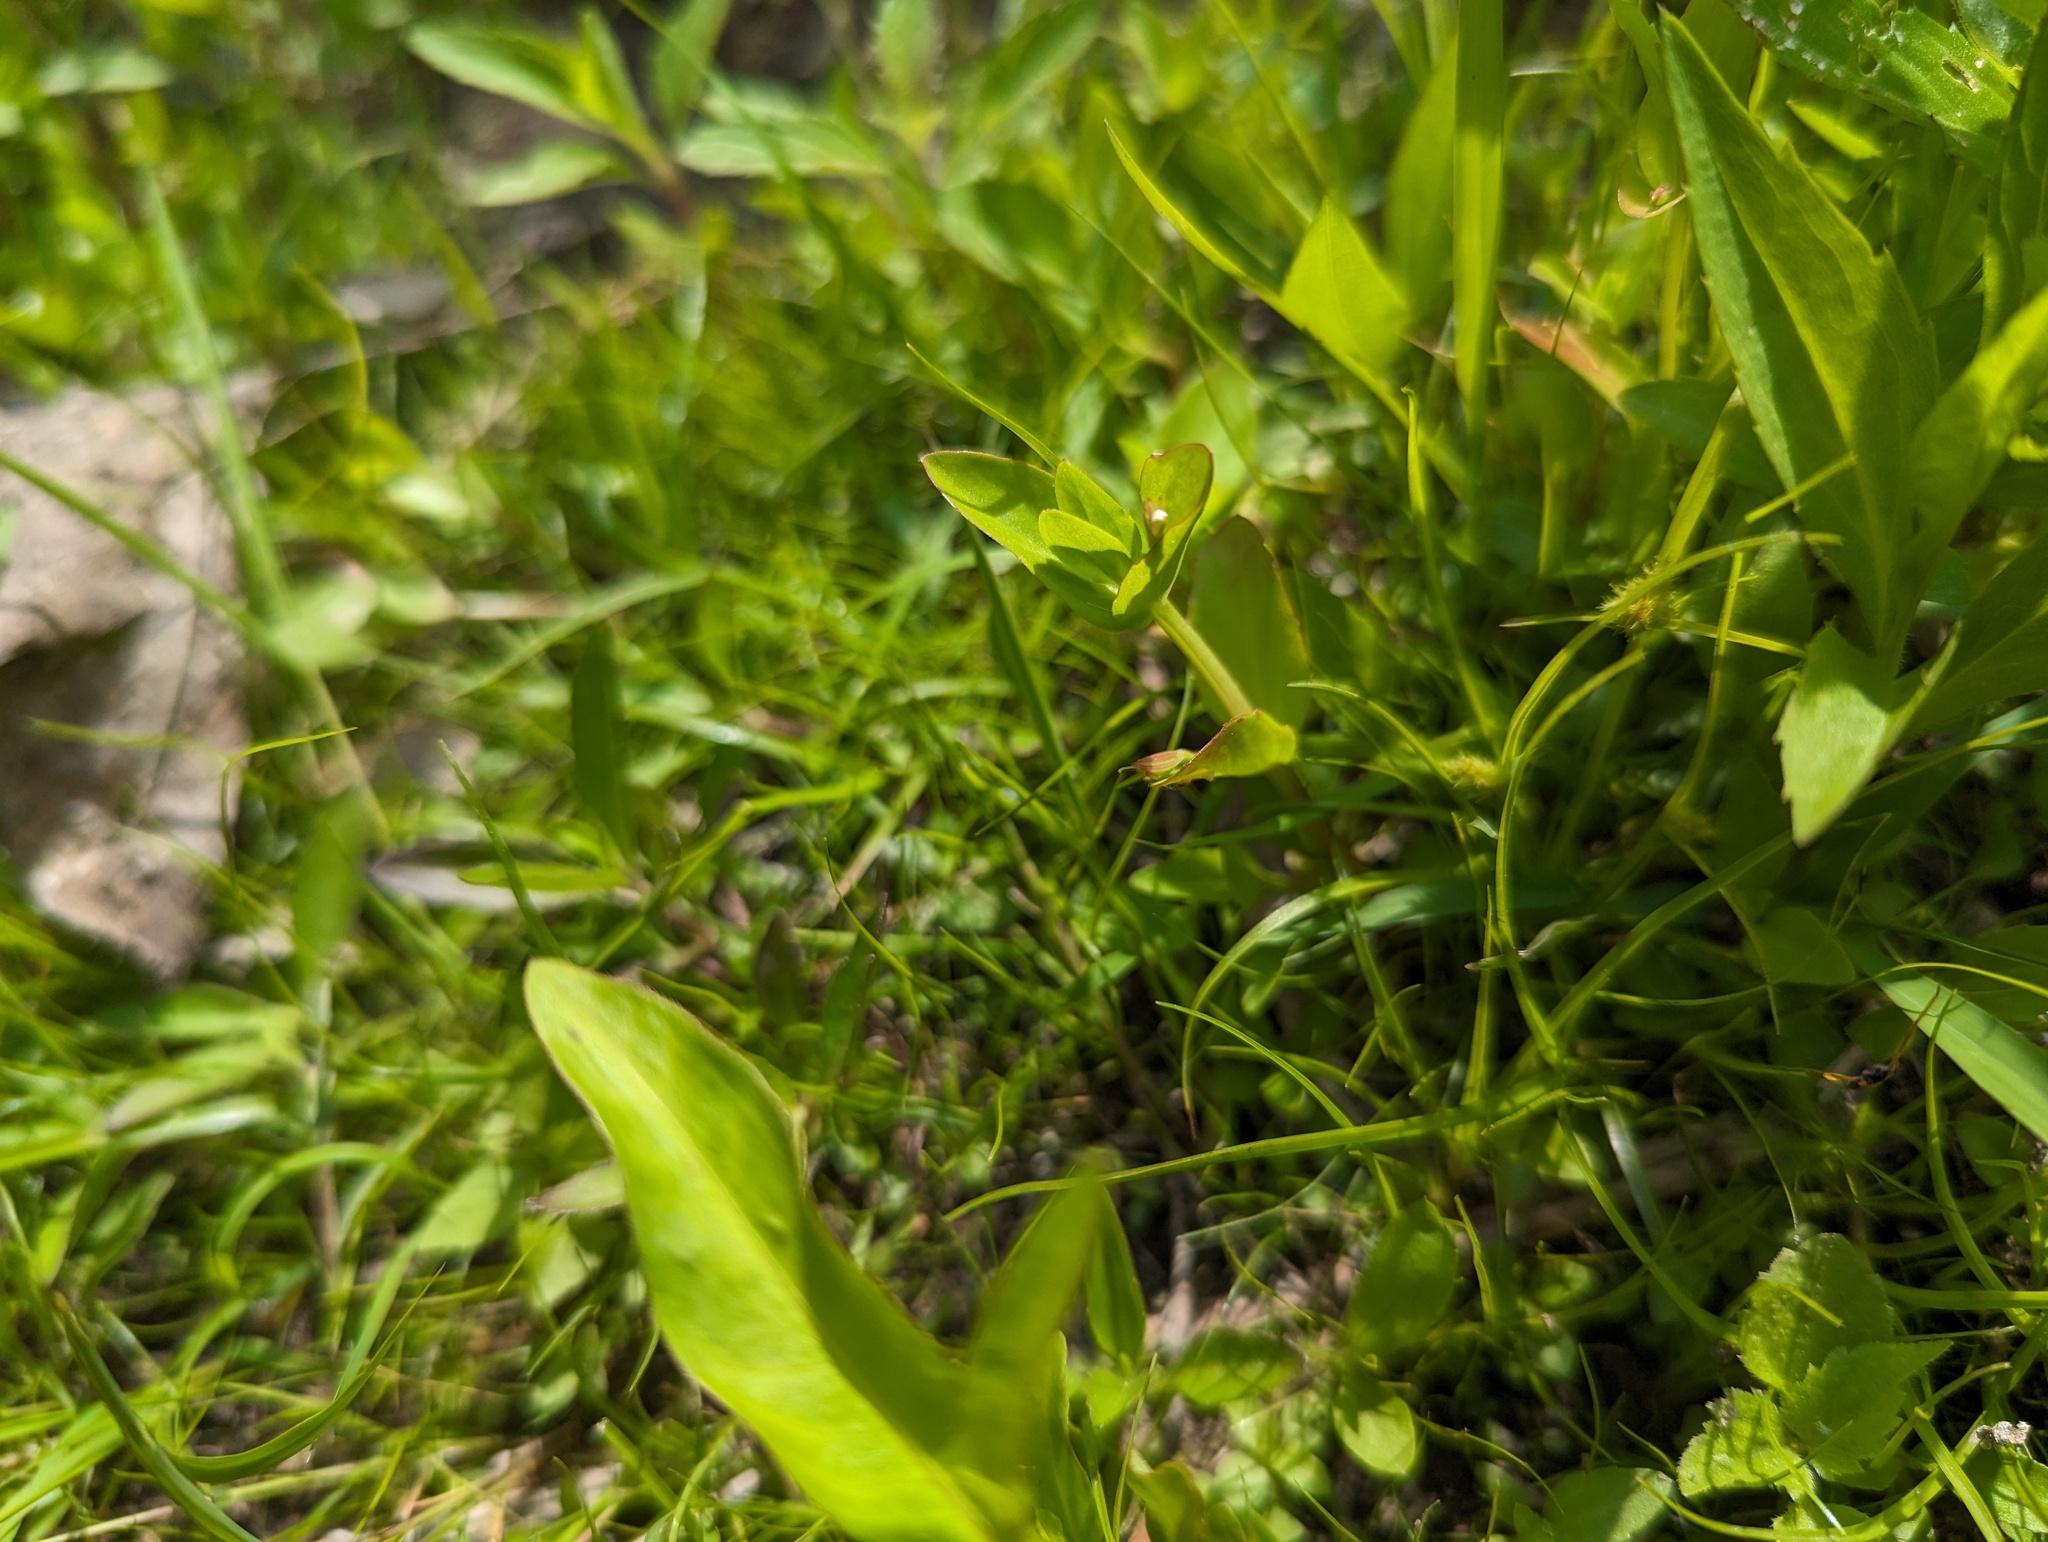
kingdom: Plantae
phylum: Tracheophyta
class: Magnoliopsida
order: Lamiales
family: Linderniaceae
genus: Lindernia
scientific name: Lindernia dubia
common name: Annual false pimpernel
